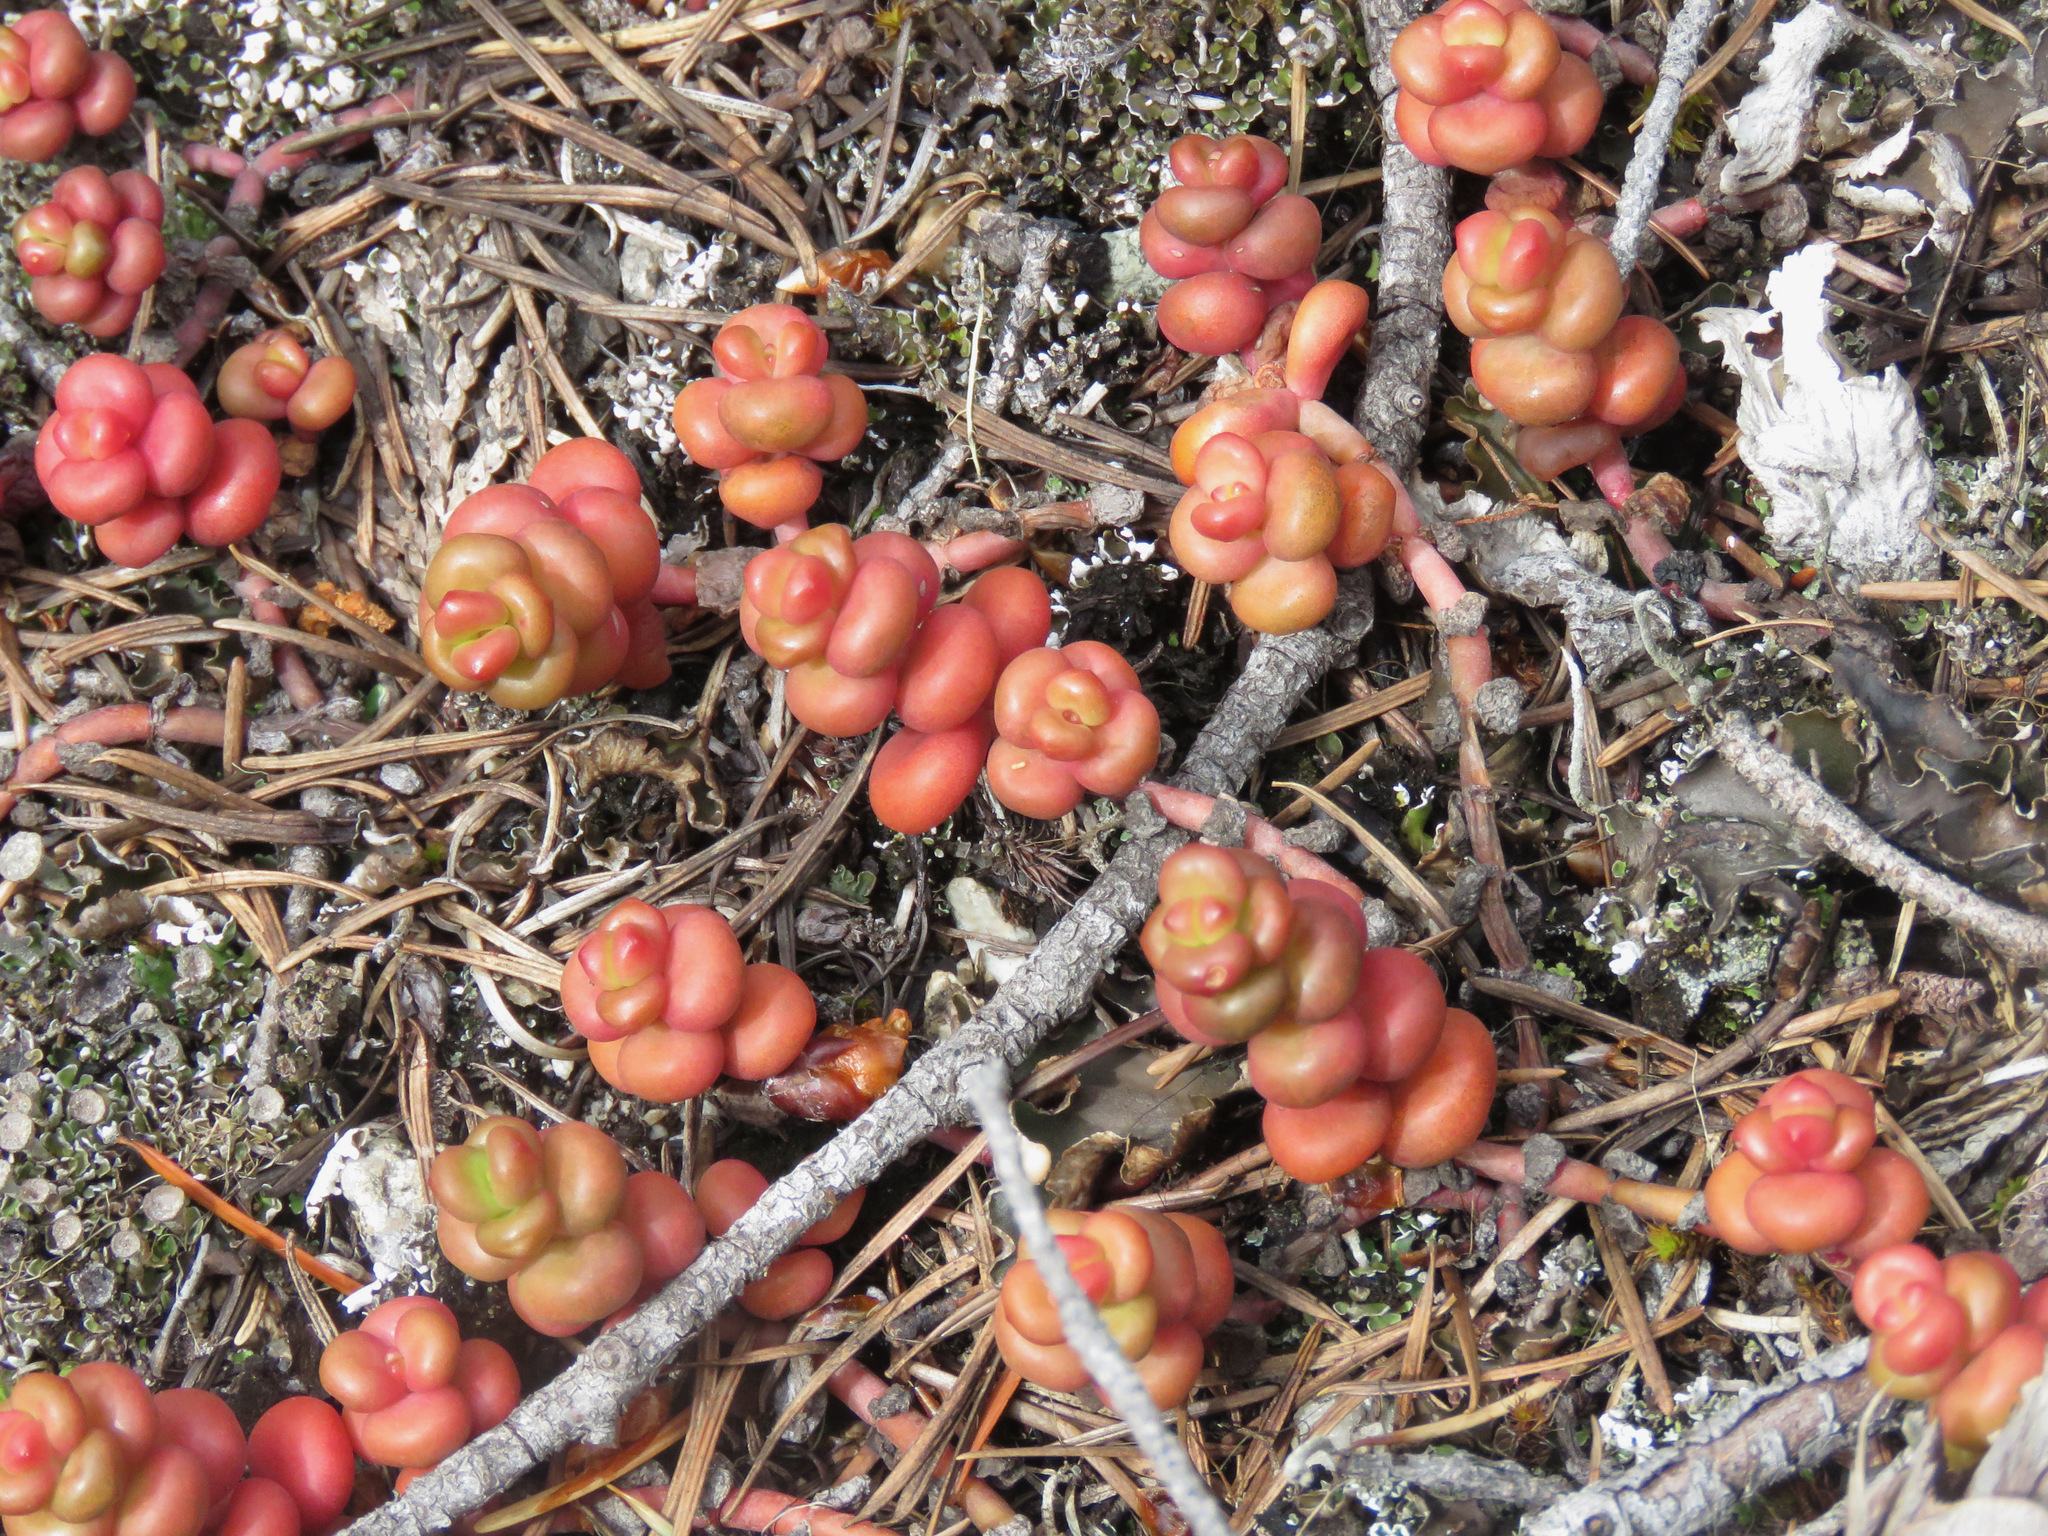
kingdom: Plantae
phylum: Tracheophyta
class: Magnoliopsida
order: Saxifragales
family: Crassulaceae
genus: Sedum
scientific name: Sedum divergens
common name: Cascade stonecrop
